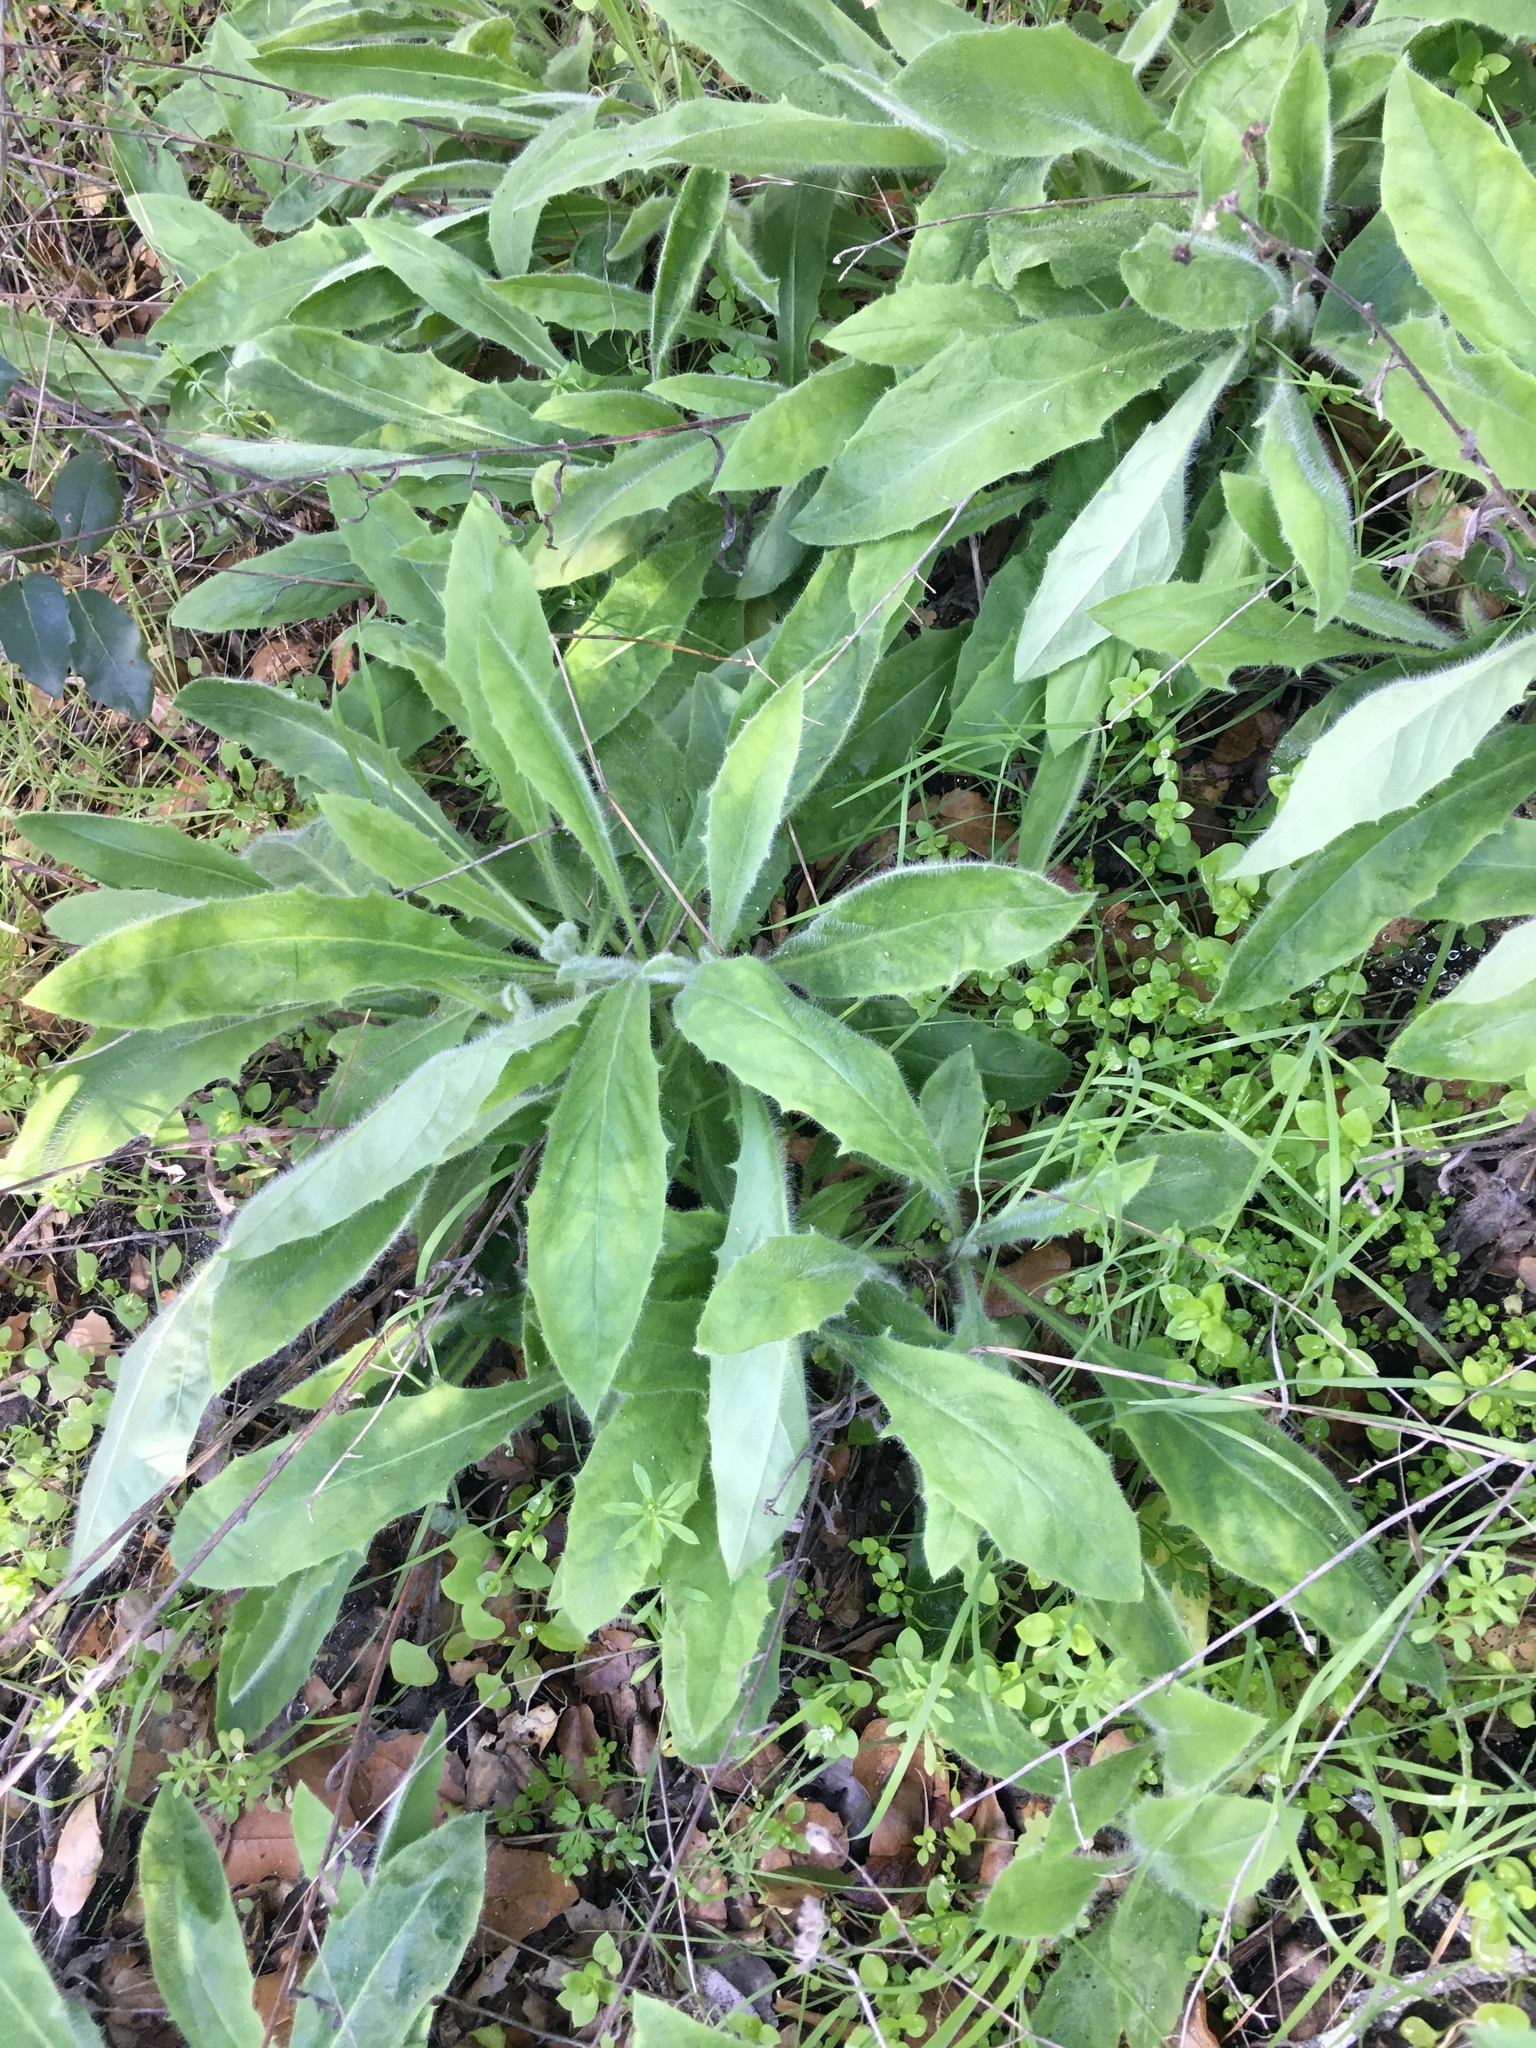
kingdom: Plantae
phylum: Tracheophyta
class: Magnoliopsida
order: Asterales
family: Asteraceae
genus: Hieracium
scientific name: Hieracium albiflorum
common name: White hawkweed
